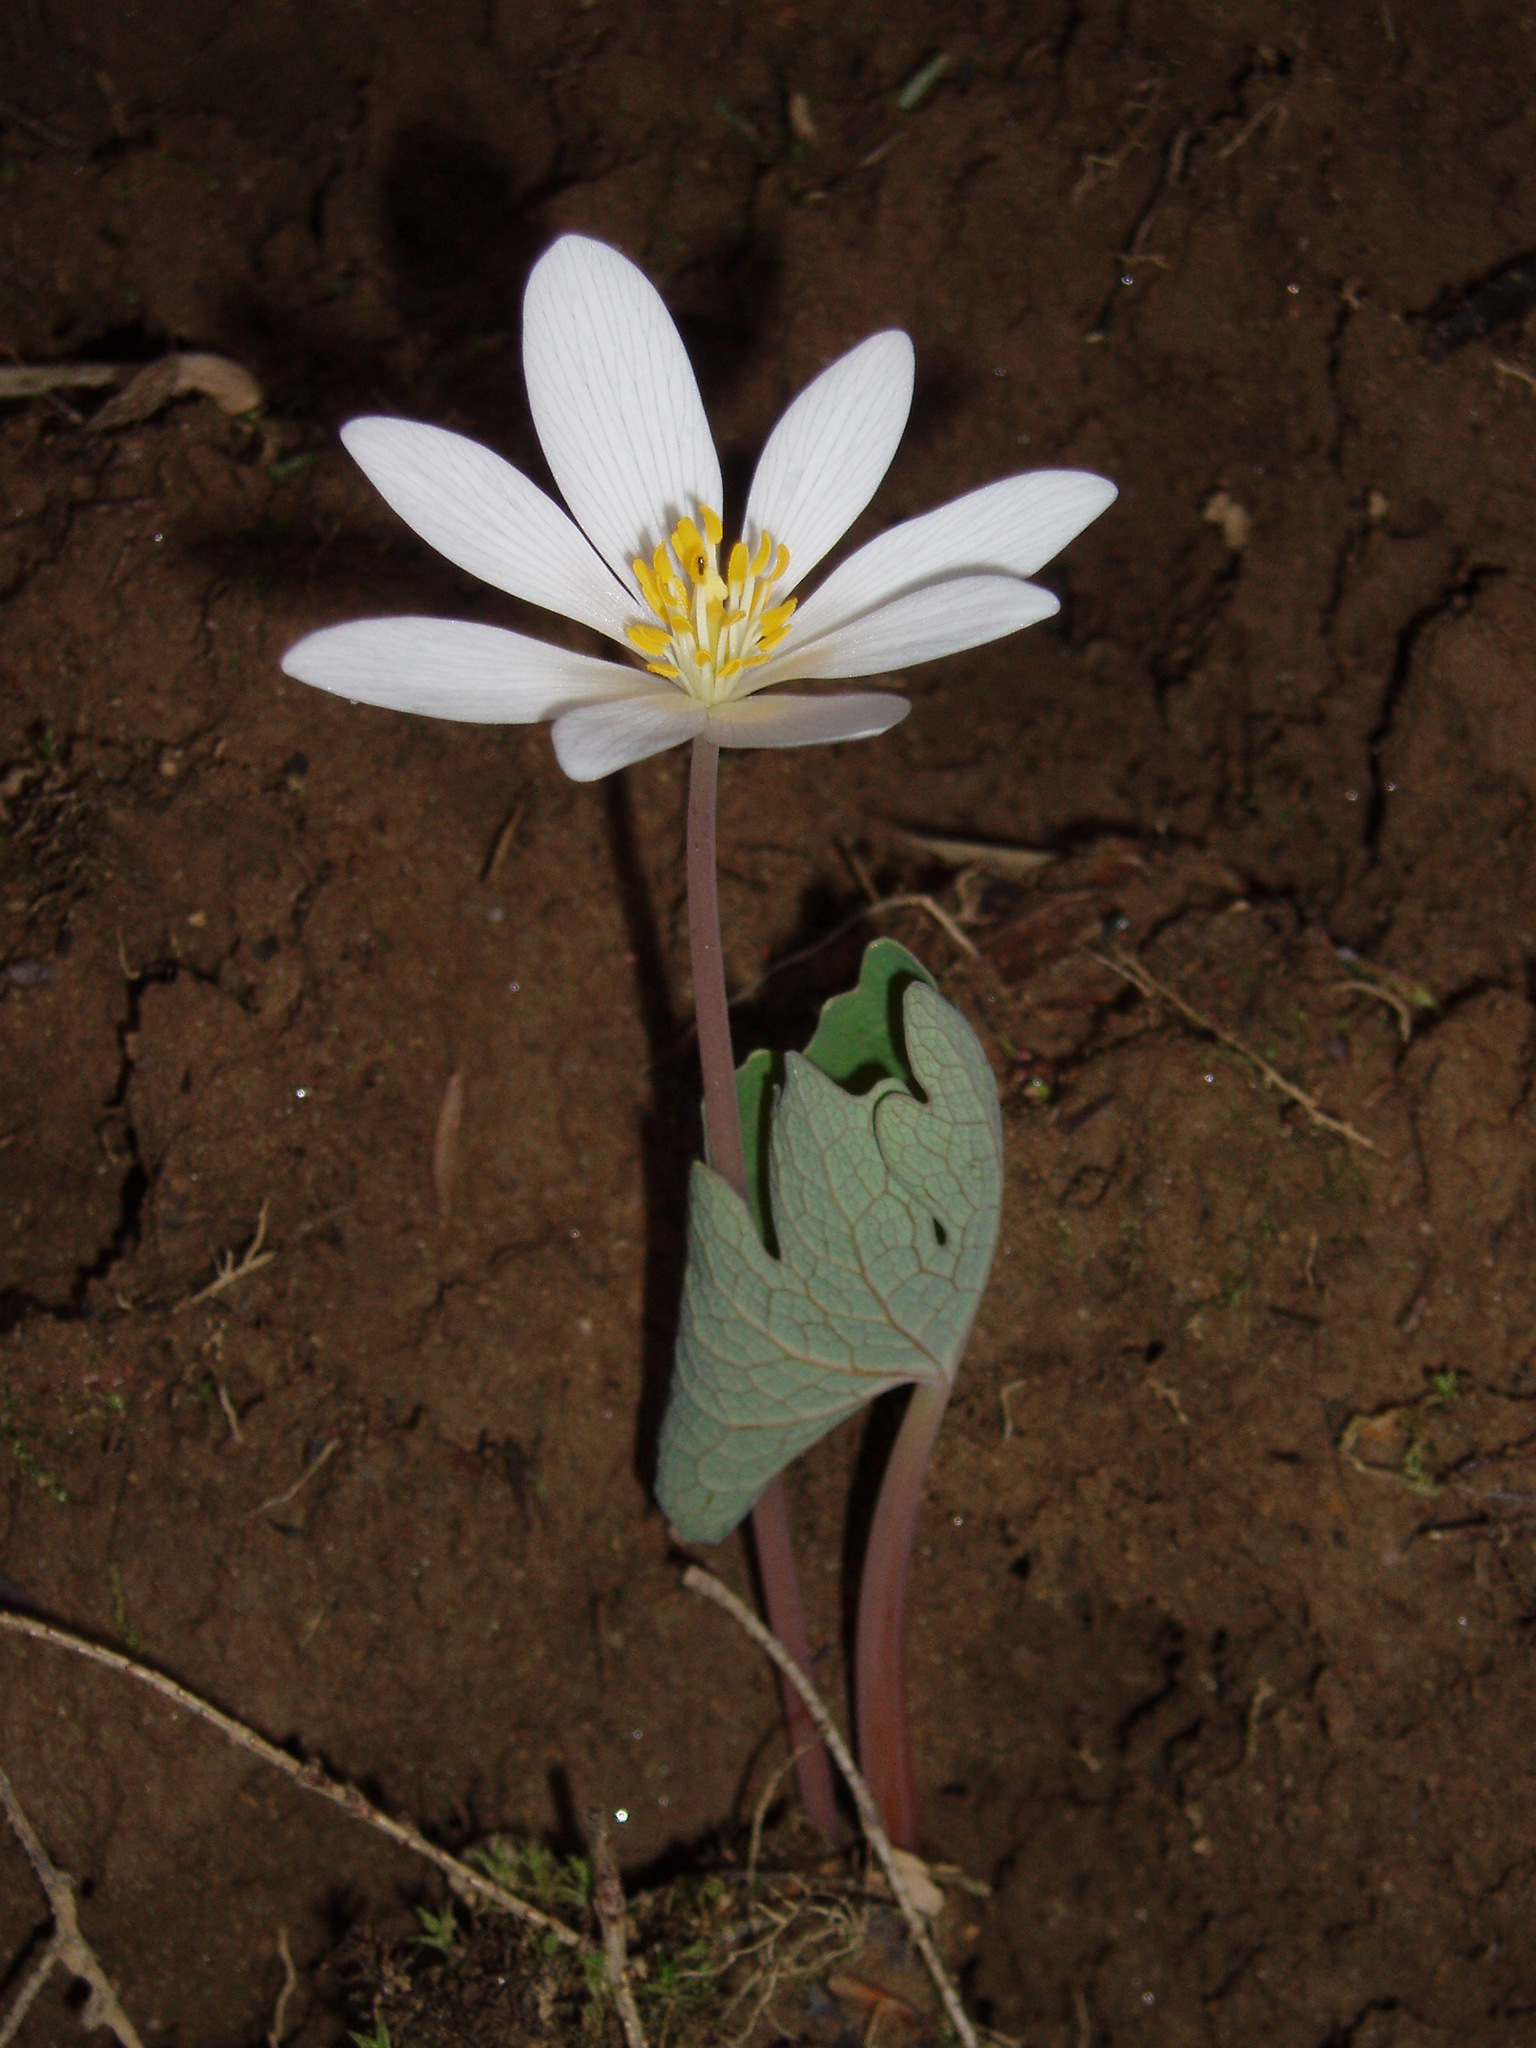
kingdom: Plantae
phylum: Tracheophyta
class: Magnoliopsida
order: Ranunculales
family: Papaveraceae
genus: Sanguinaria
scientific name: Sanguinaria canadensis
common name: Bloodroot
